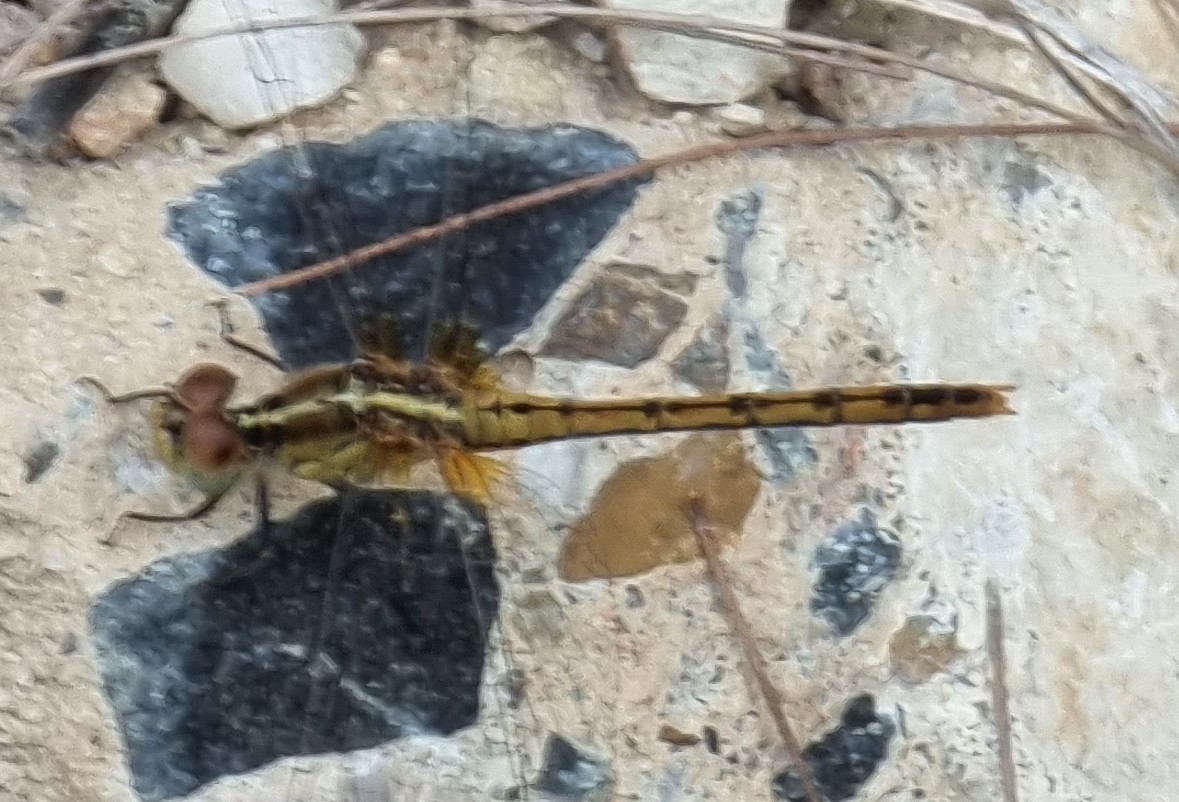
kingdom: Animalia
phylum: Arthropoda
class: Insecta
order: Odonata
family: Libellulidae
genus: Diplacodes
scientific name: Diplacodes bipunctata
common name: Red percher dragonfly
